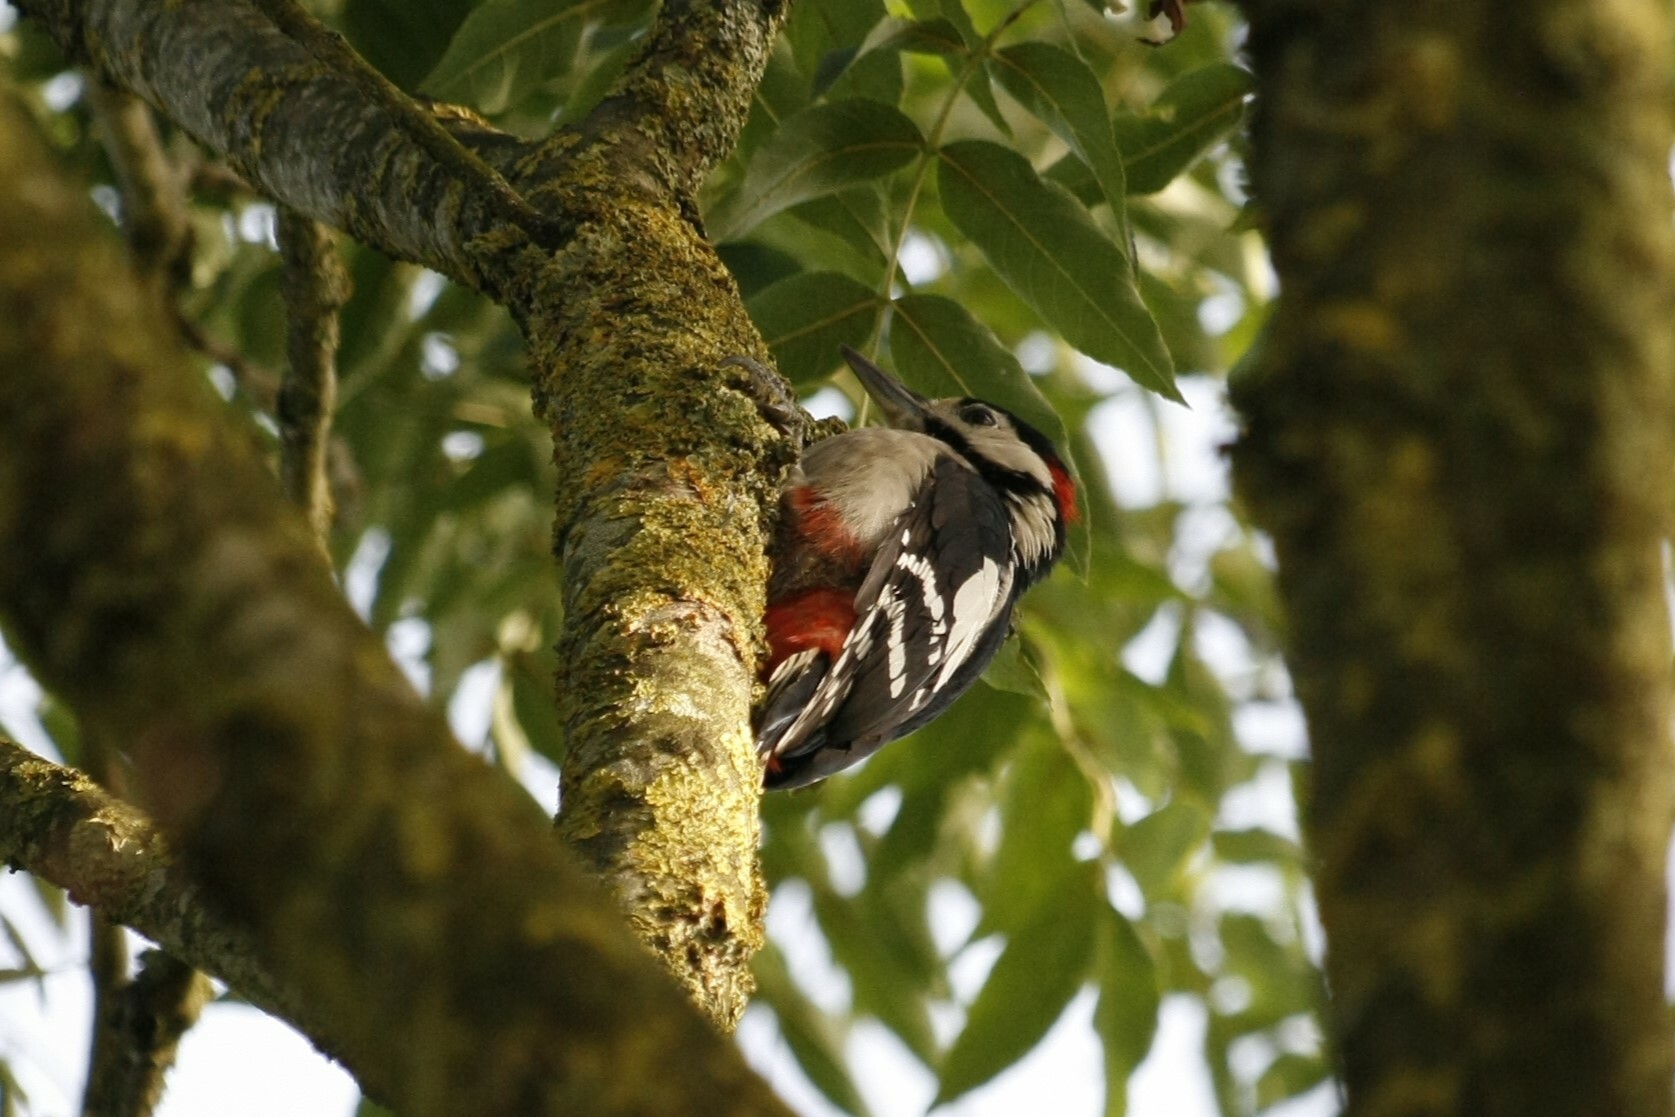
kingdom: Animalia
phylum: Chordata
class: Aves
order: Piciformes
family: Picidae
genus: Dendrocopos
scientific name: Dendrocopos major
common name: Great spotted woodpecker
